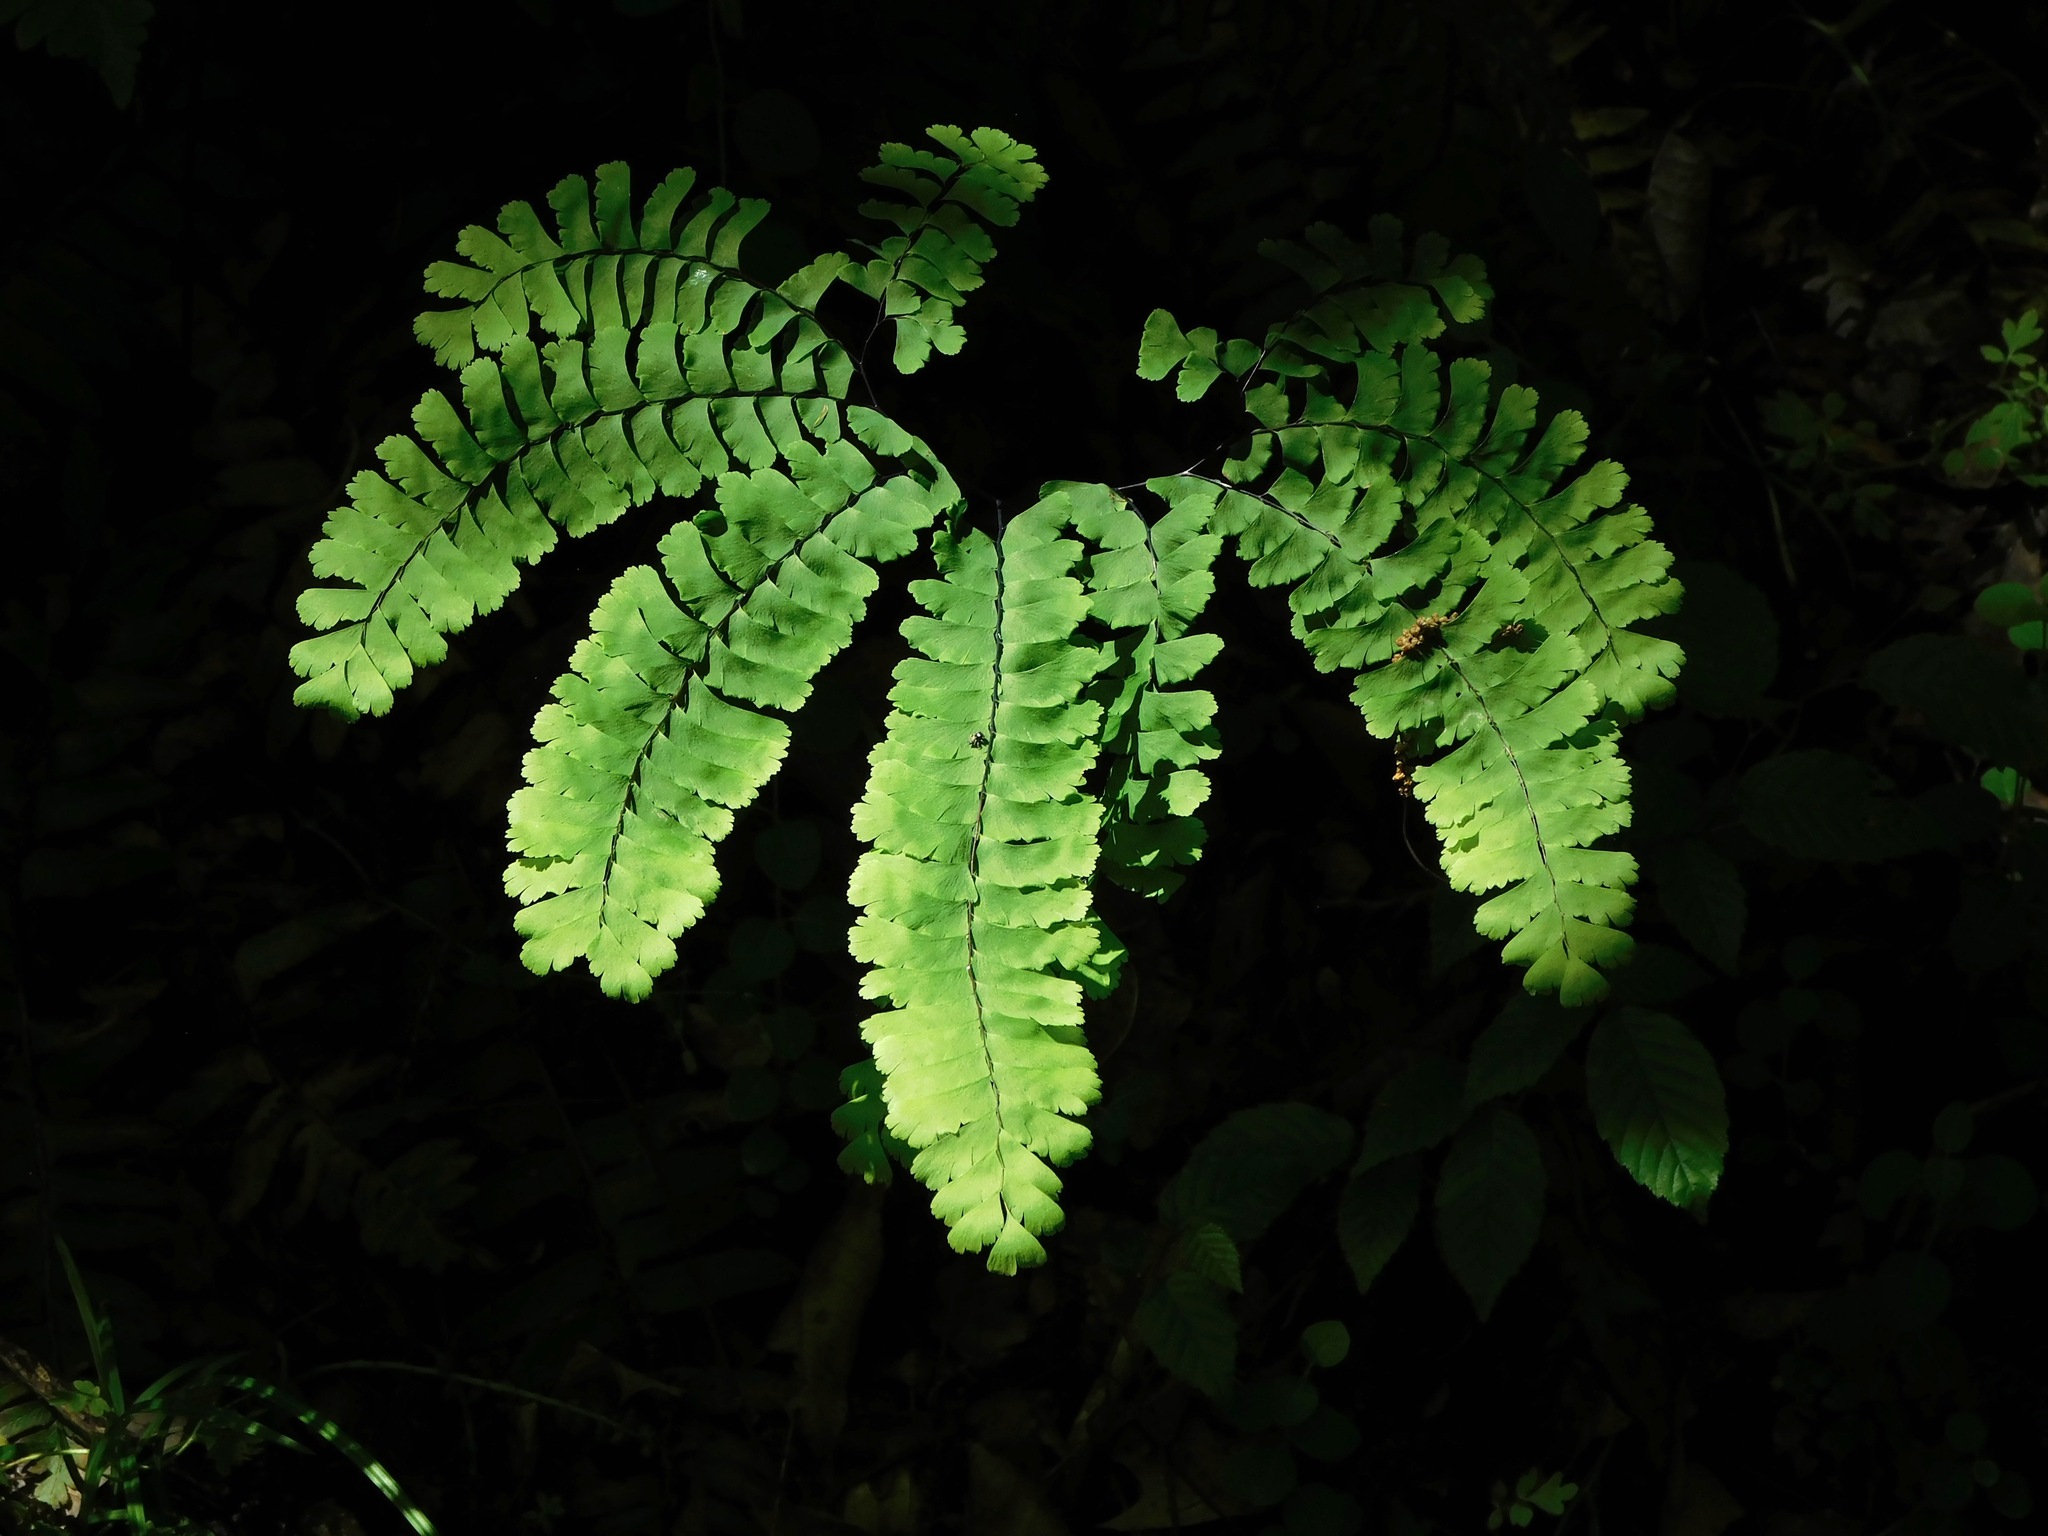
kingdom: Plantae
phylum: Tracheophyta
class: Polypodiopsida
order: Polypodiales
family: Pteridaceae
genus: Adiantum
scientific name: Adiantum pedatum
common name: Five-finger fern
